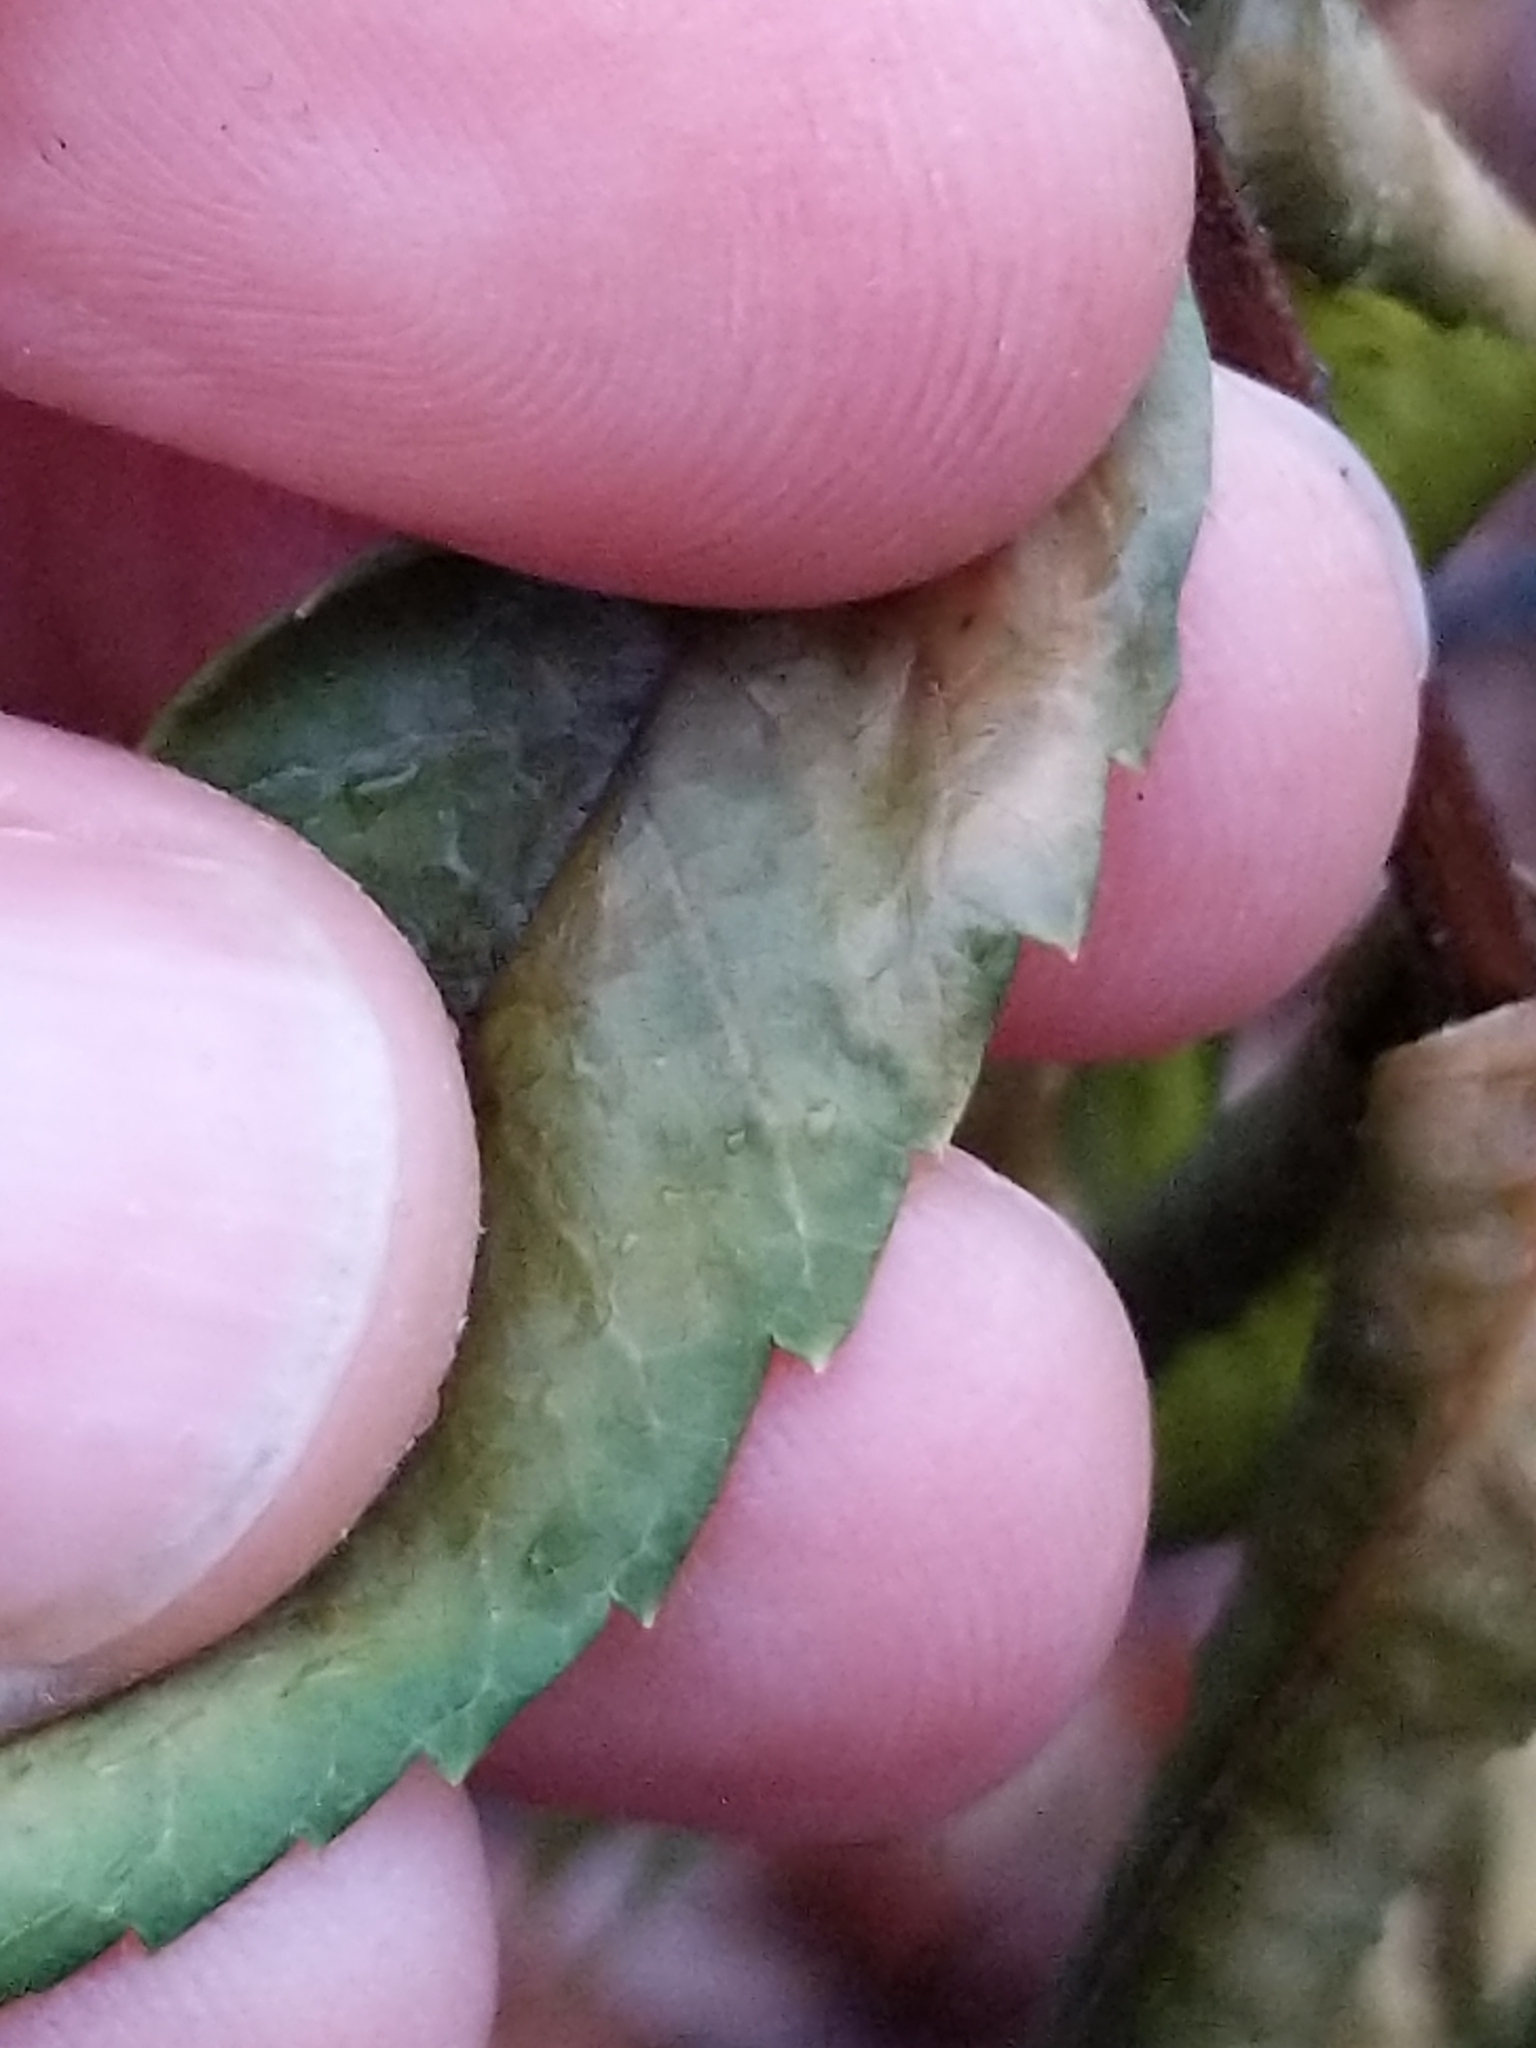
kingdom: Plantae
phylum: Tracheophyta
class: Magnoliopsida
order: Sapindales
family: Anacardiaceae
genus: Rhus
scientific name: Rhus typhina
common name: Staghorn sumac
